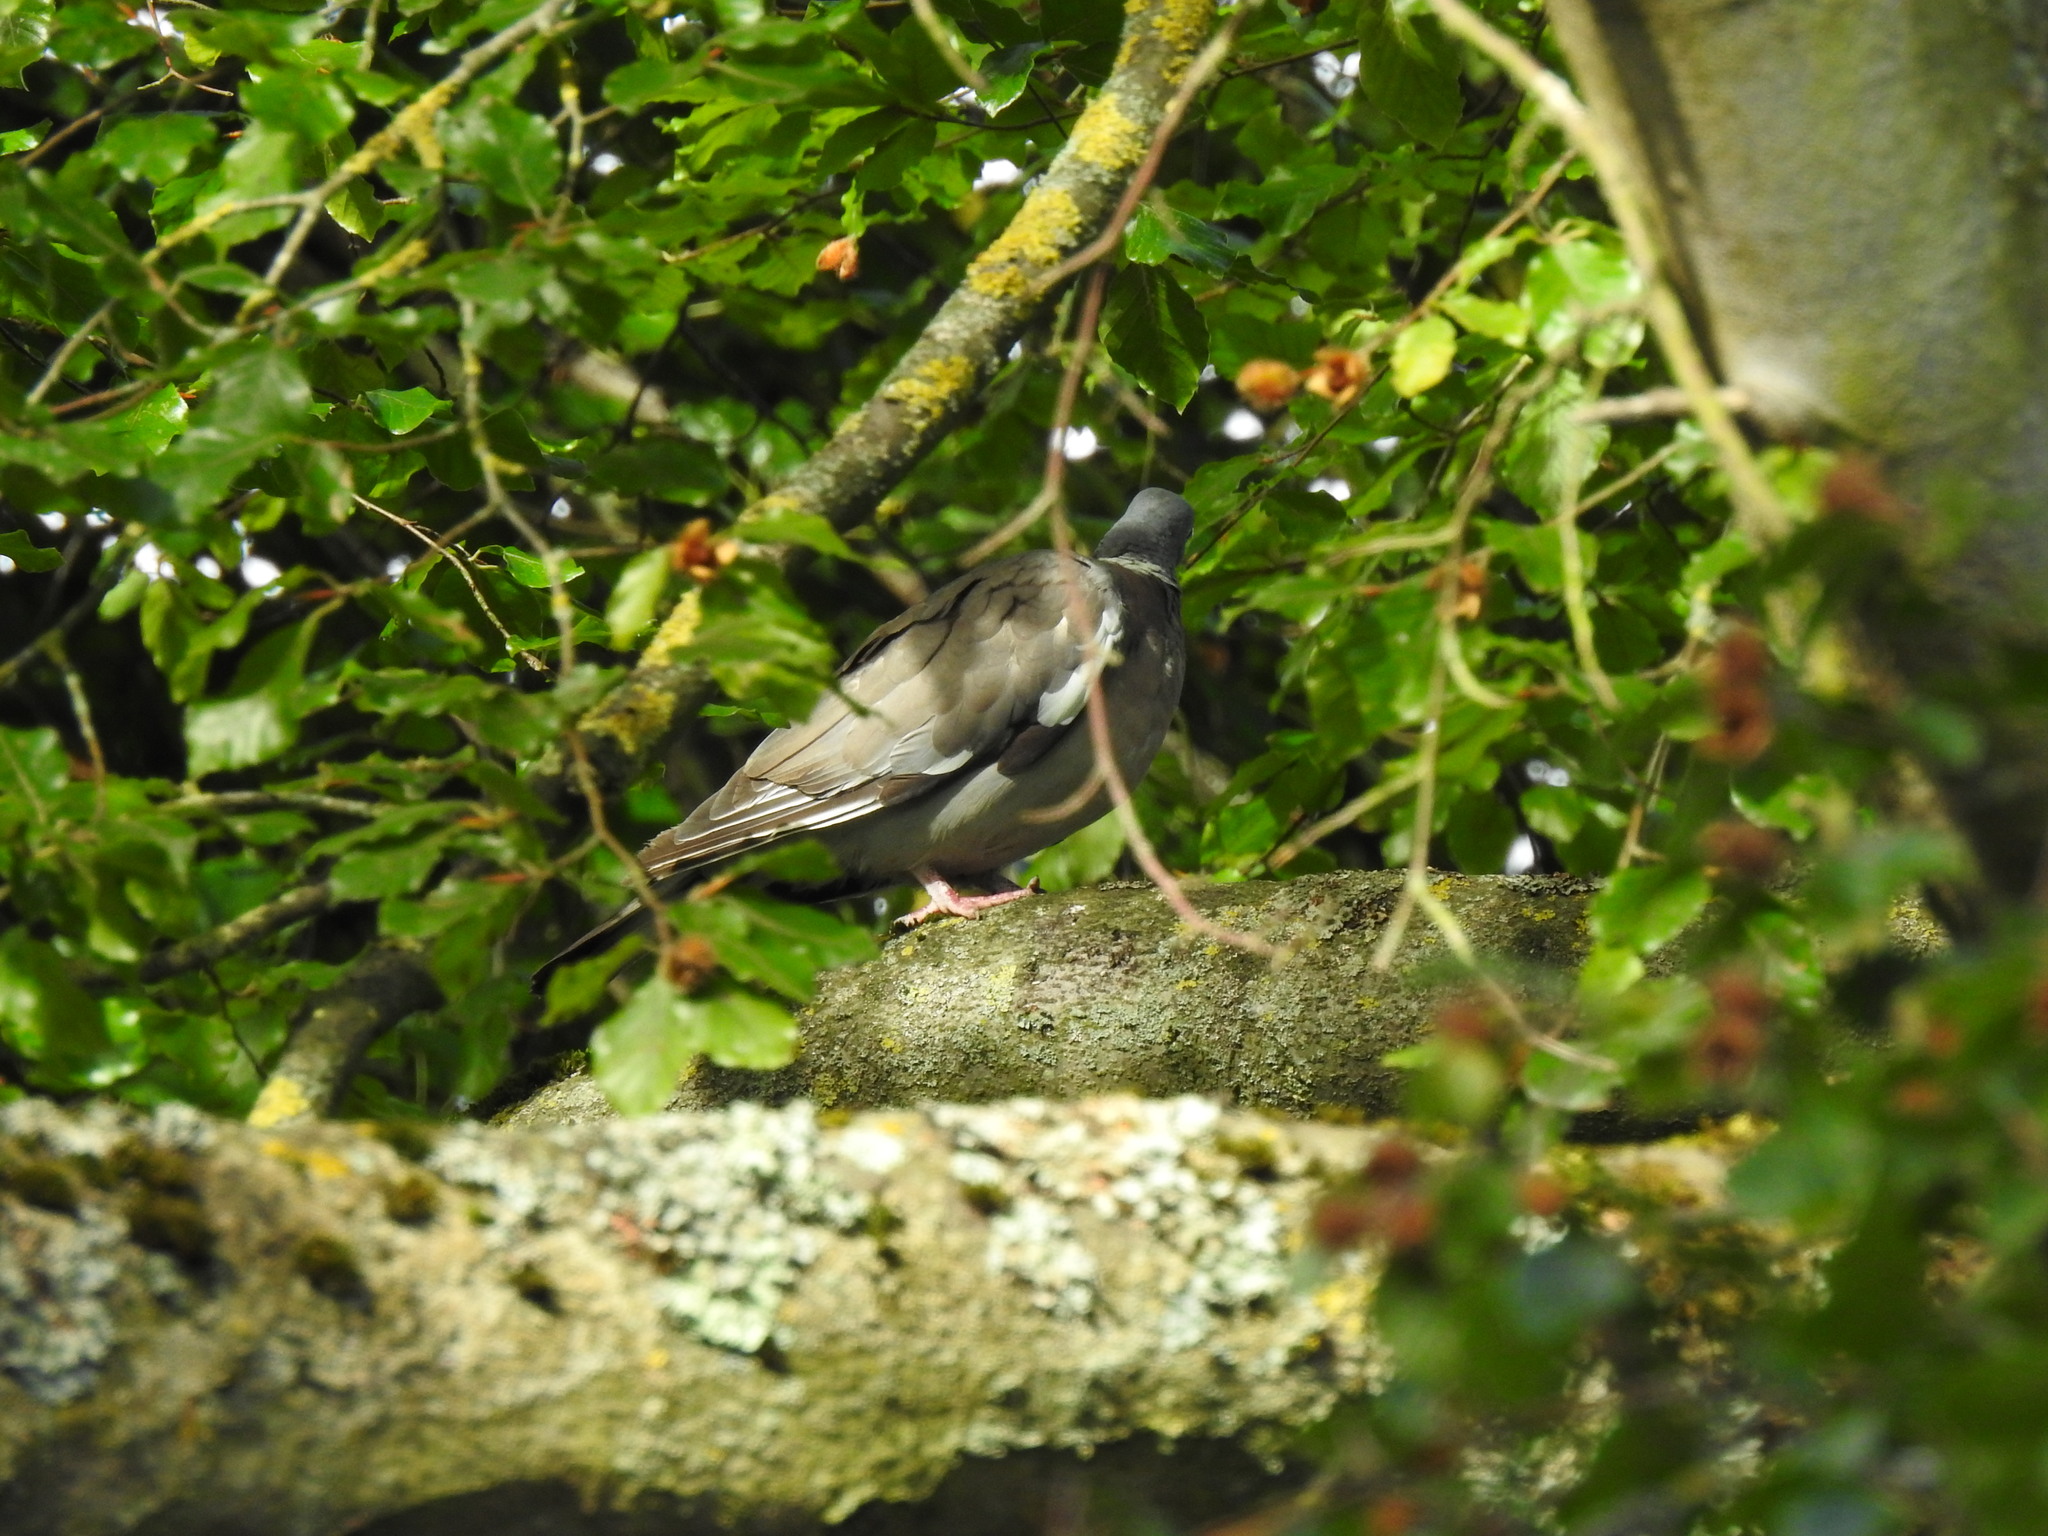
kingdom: Animalia
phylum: Chordata
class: Aves
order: Columbiformes
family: Columbidae
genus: Columba
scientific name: Columba palumbus
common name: Common wood pigeon
